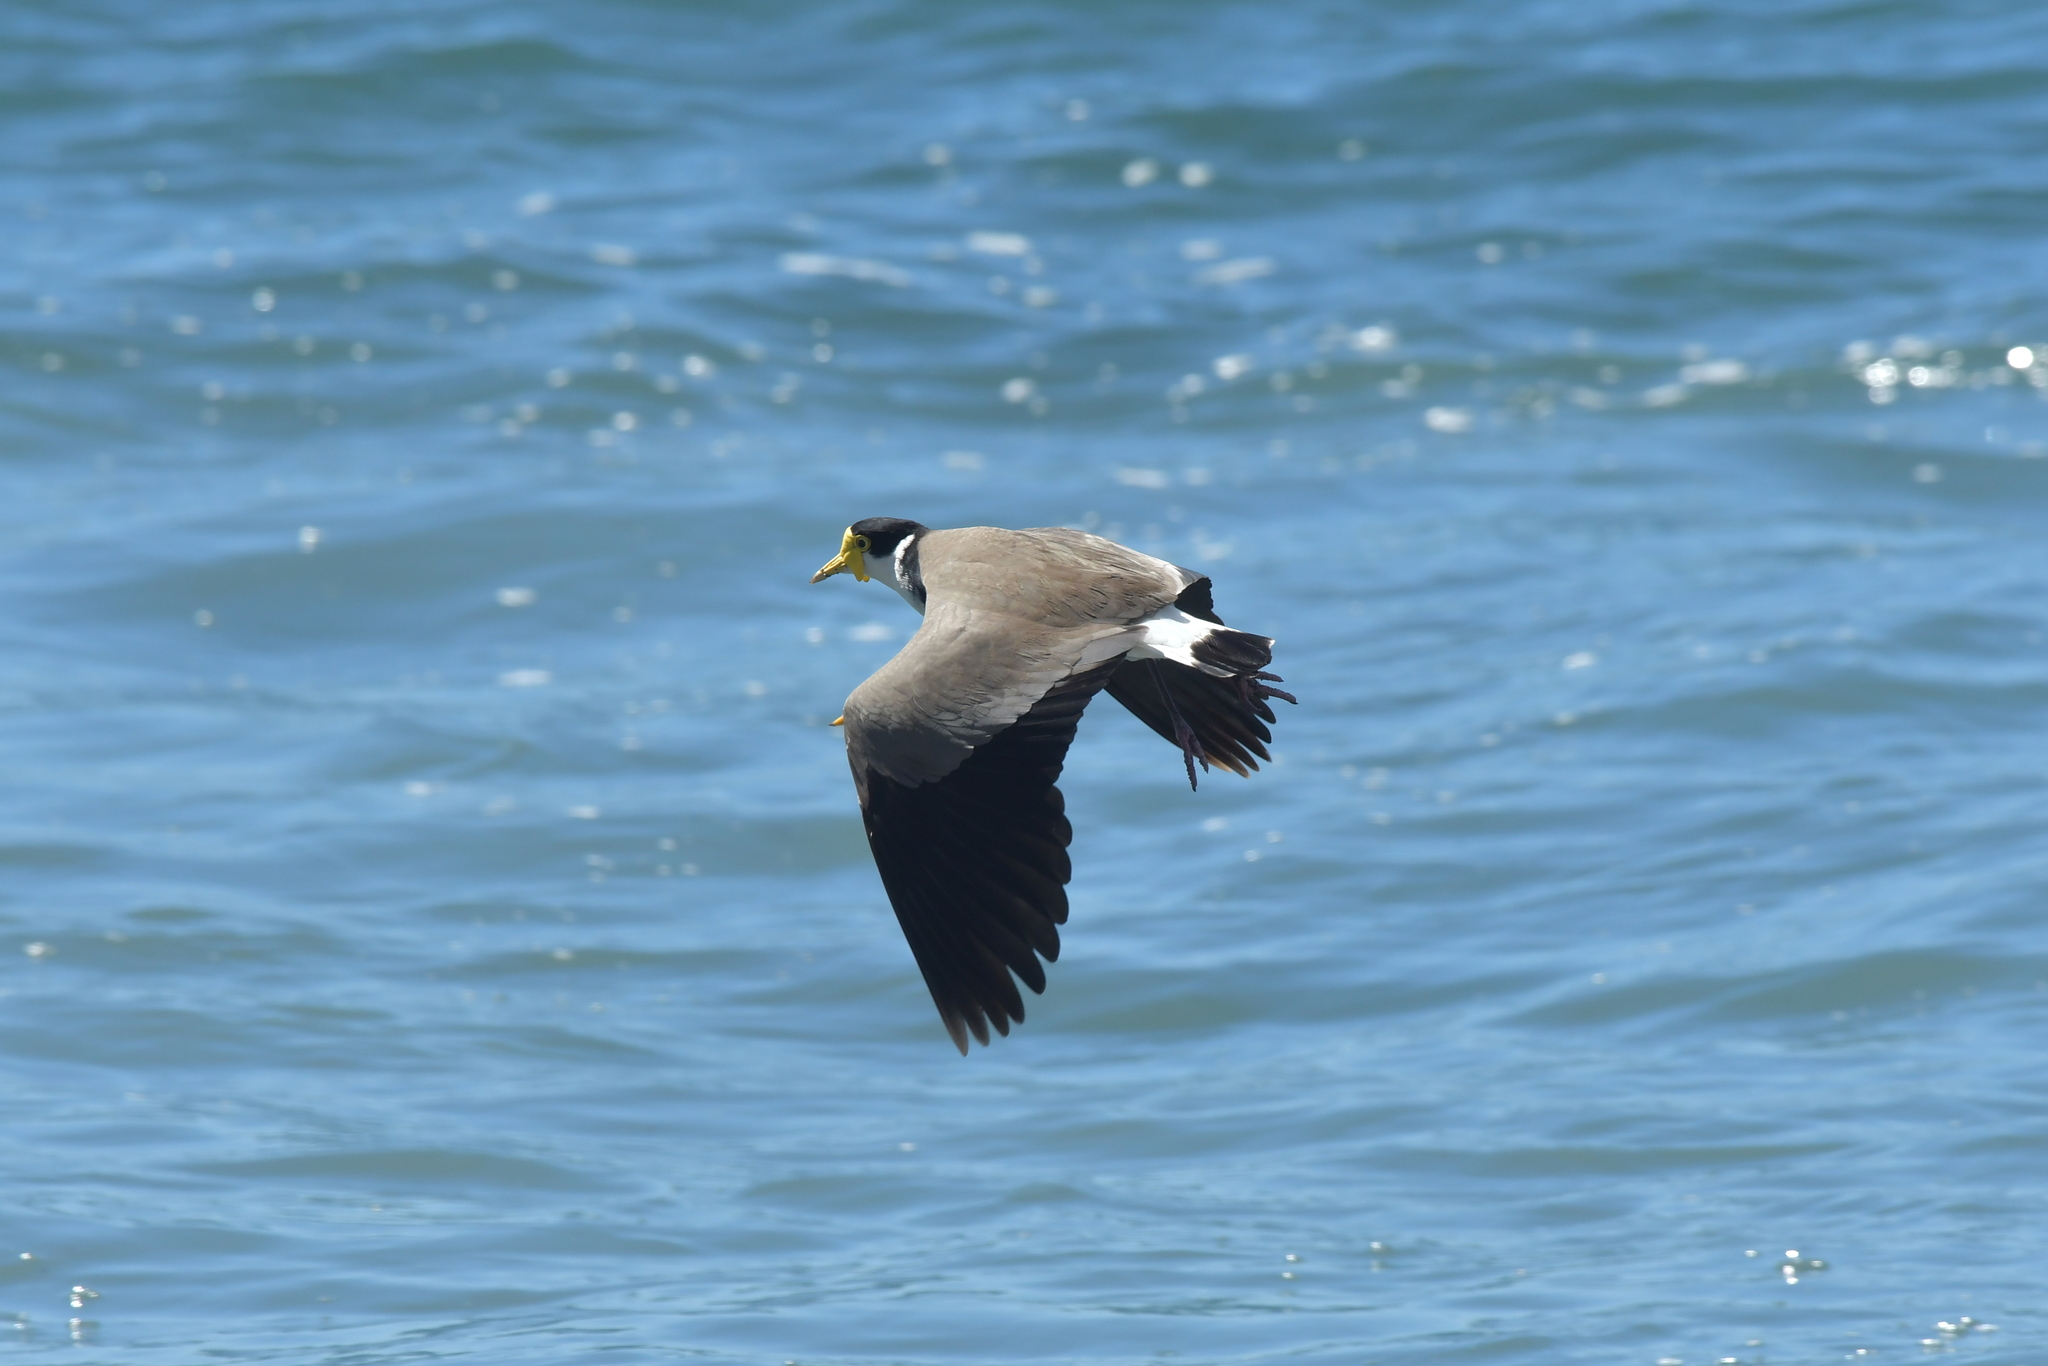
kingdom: Animalia
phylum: Chordata
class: Aves
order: Charadriiformes
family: Charadriidae
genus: Vanellus
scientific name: Vanellus miles
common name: Masked lapwing
